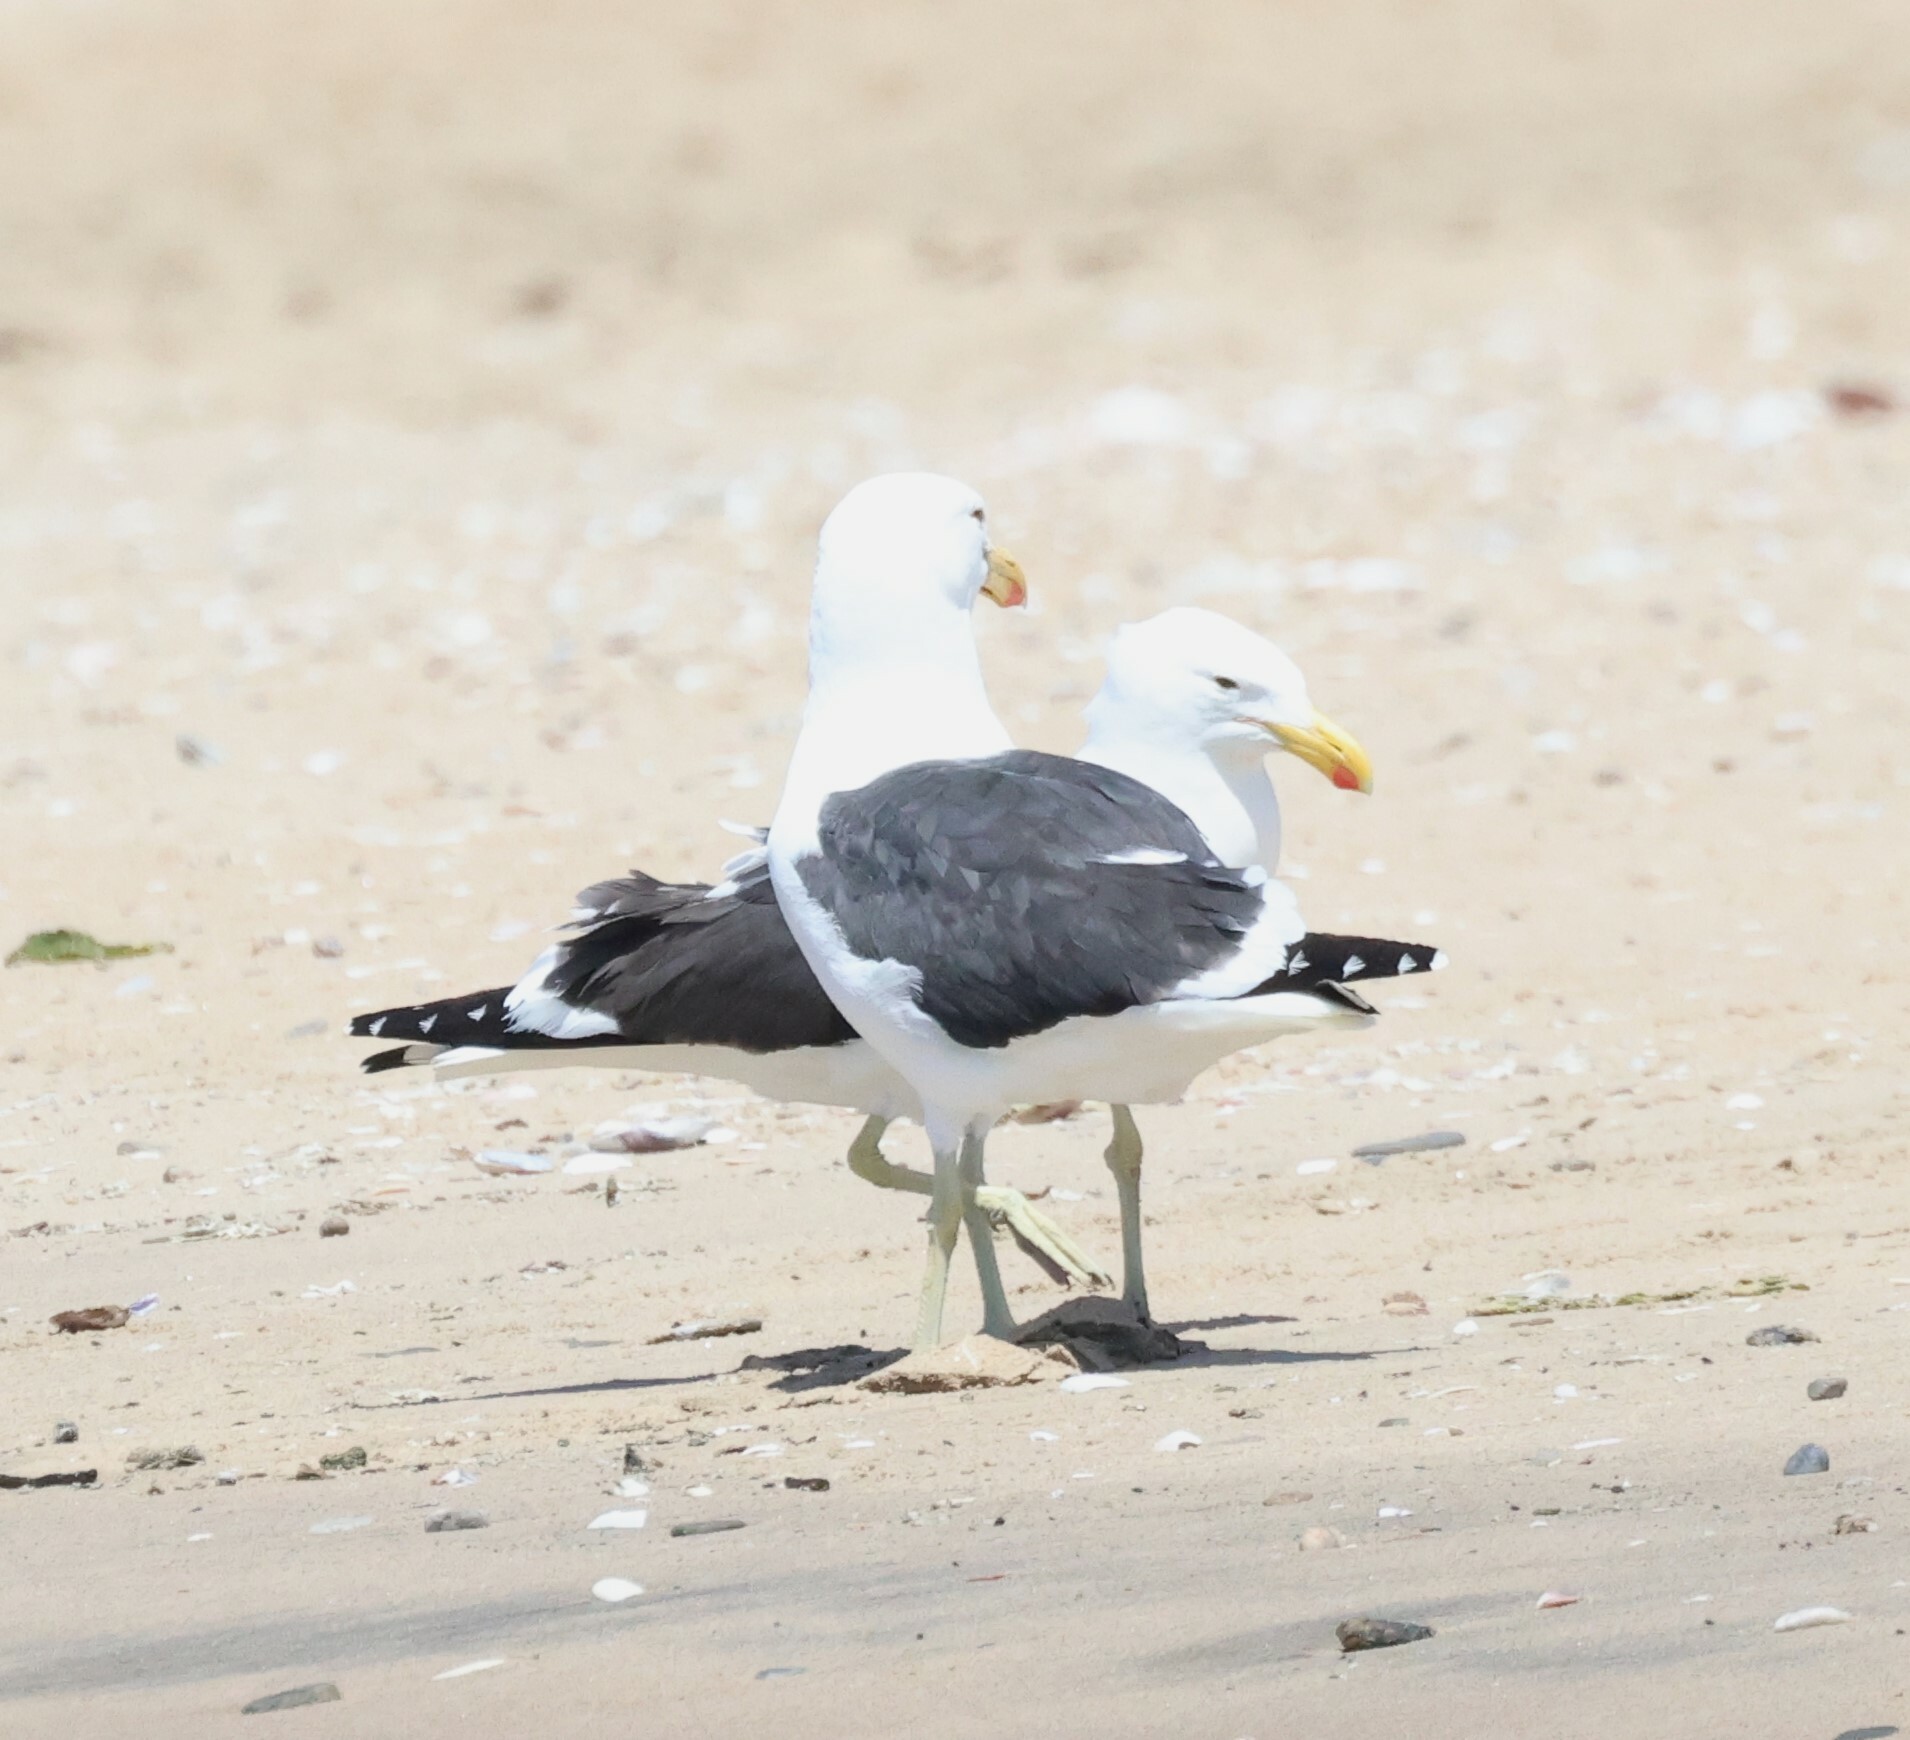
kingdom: Animalia
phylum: Chordata
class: Aves
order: Charadriiformes
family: Laridae
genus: Larus
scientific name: Larus dominicanus
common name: Kelp gull
